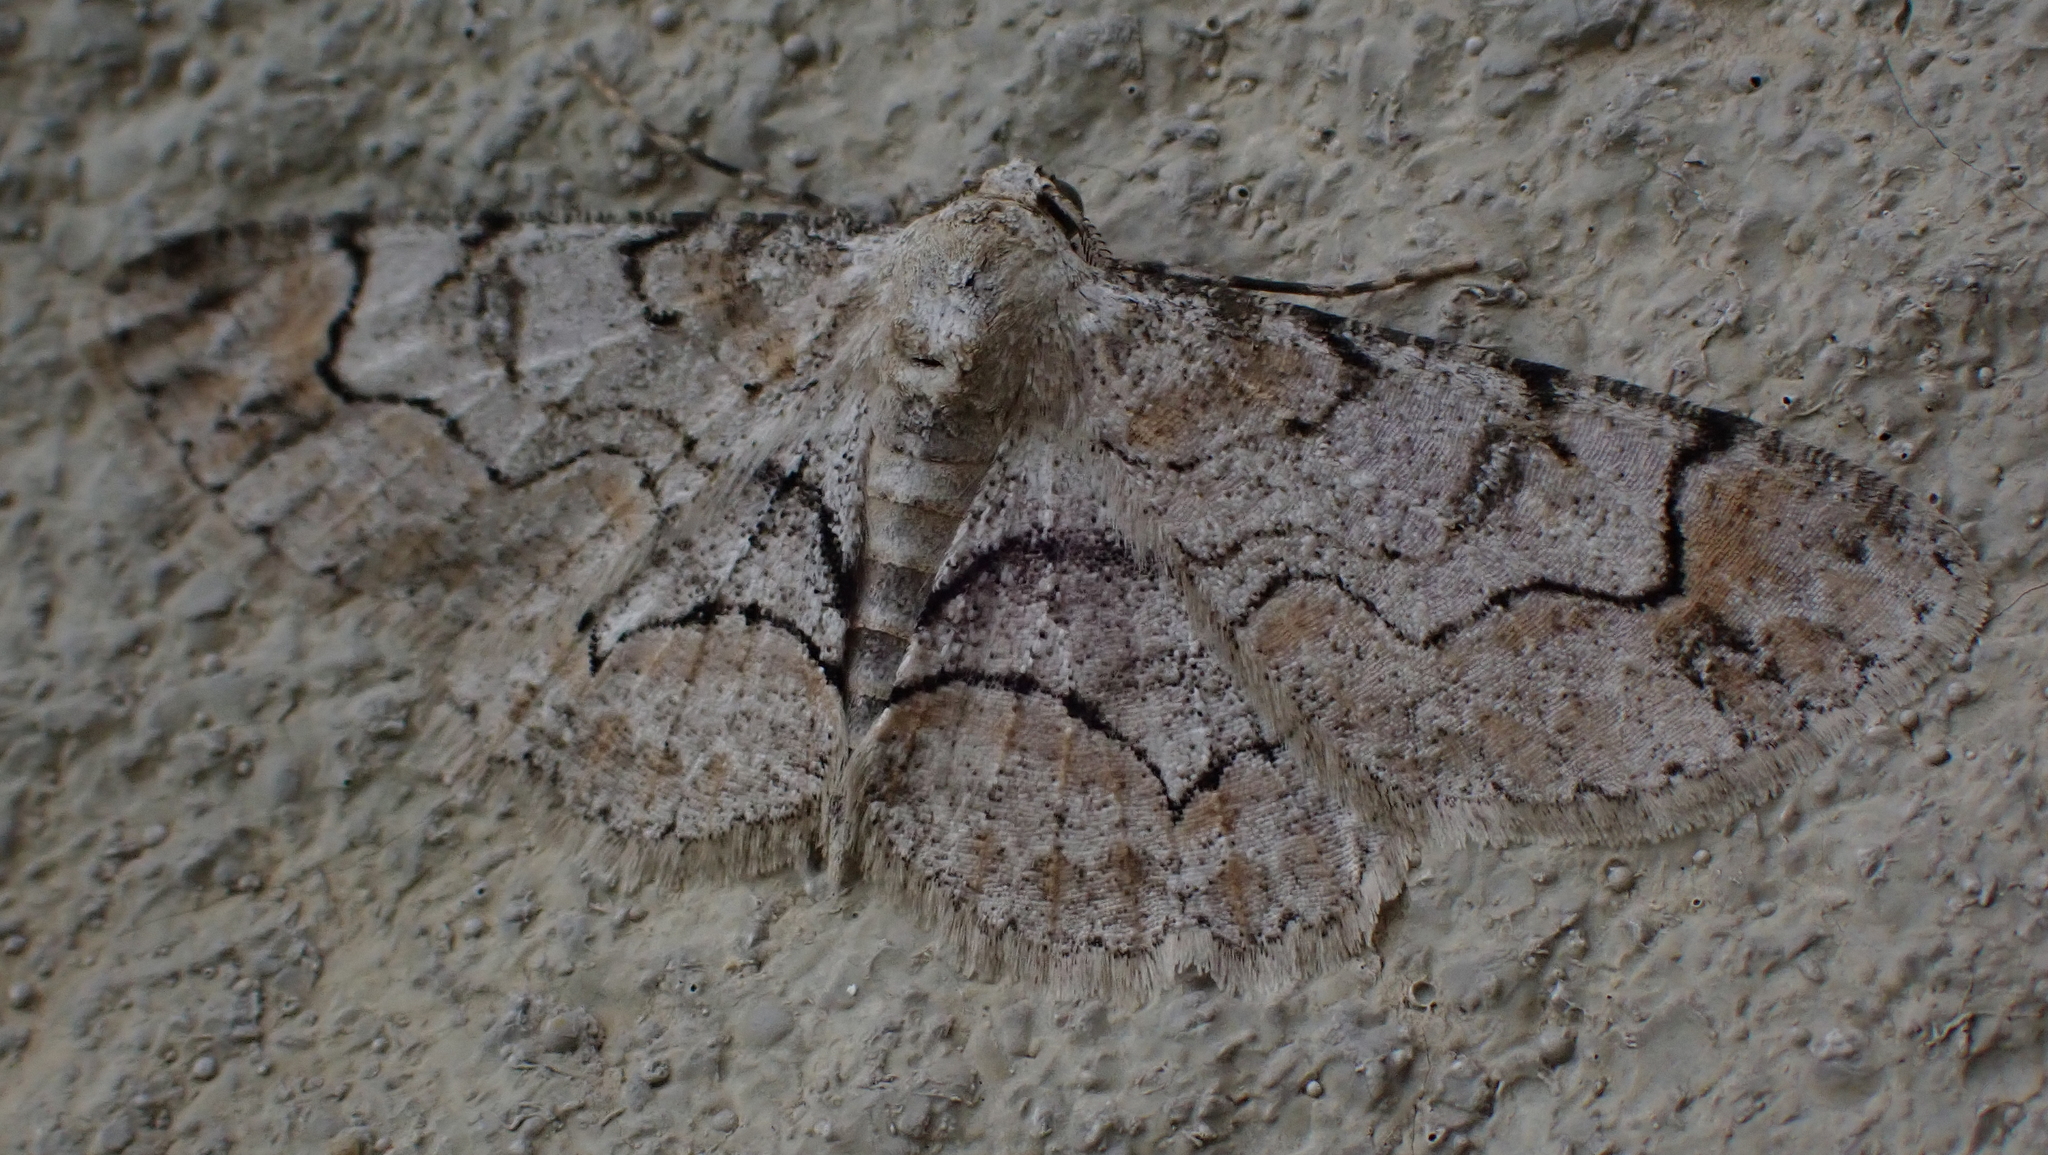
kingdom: Animalia
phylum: Arthropoda
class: Insecta
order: Lepidoptera
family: Geometridae
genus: Iridopsis
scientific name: Iridopsis larvaria
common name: Bent-line gray
